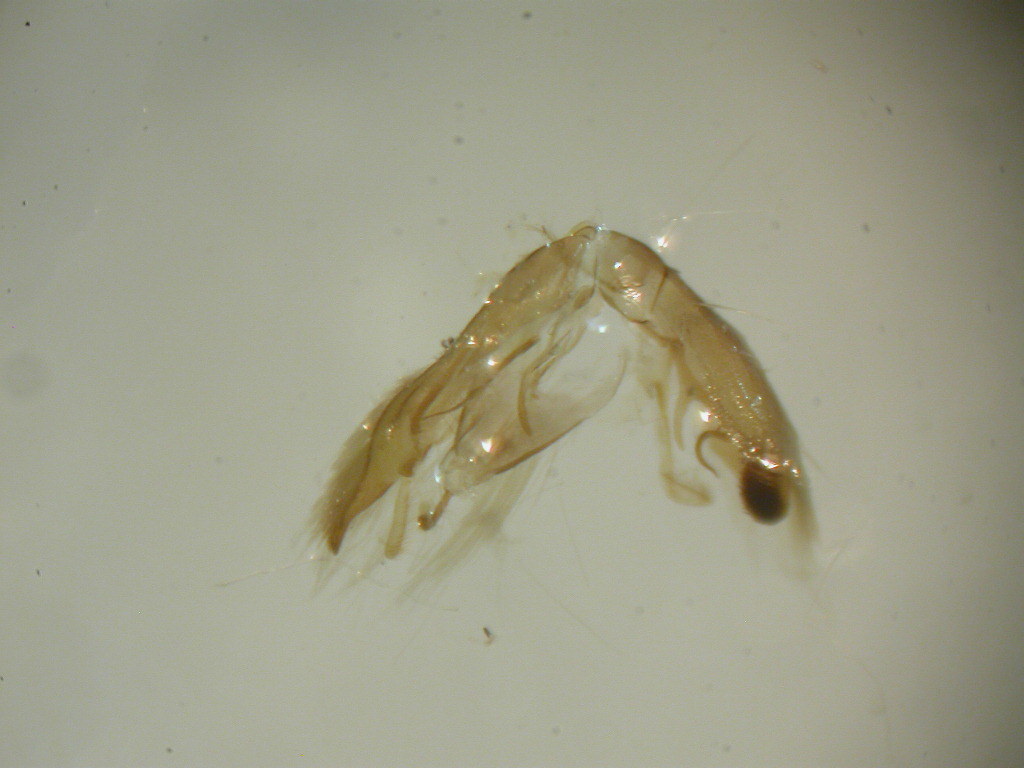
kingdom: Animalia
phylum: Arthropoda
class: Insecta
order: Lepidoptera
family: Pterophoridae
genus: Emmelina
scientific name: Emmelina monodactyla
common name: Common plume
